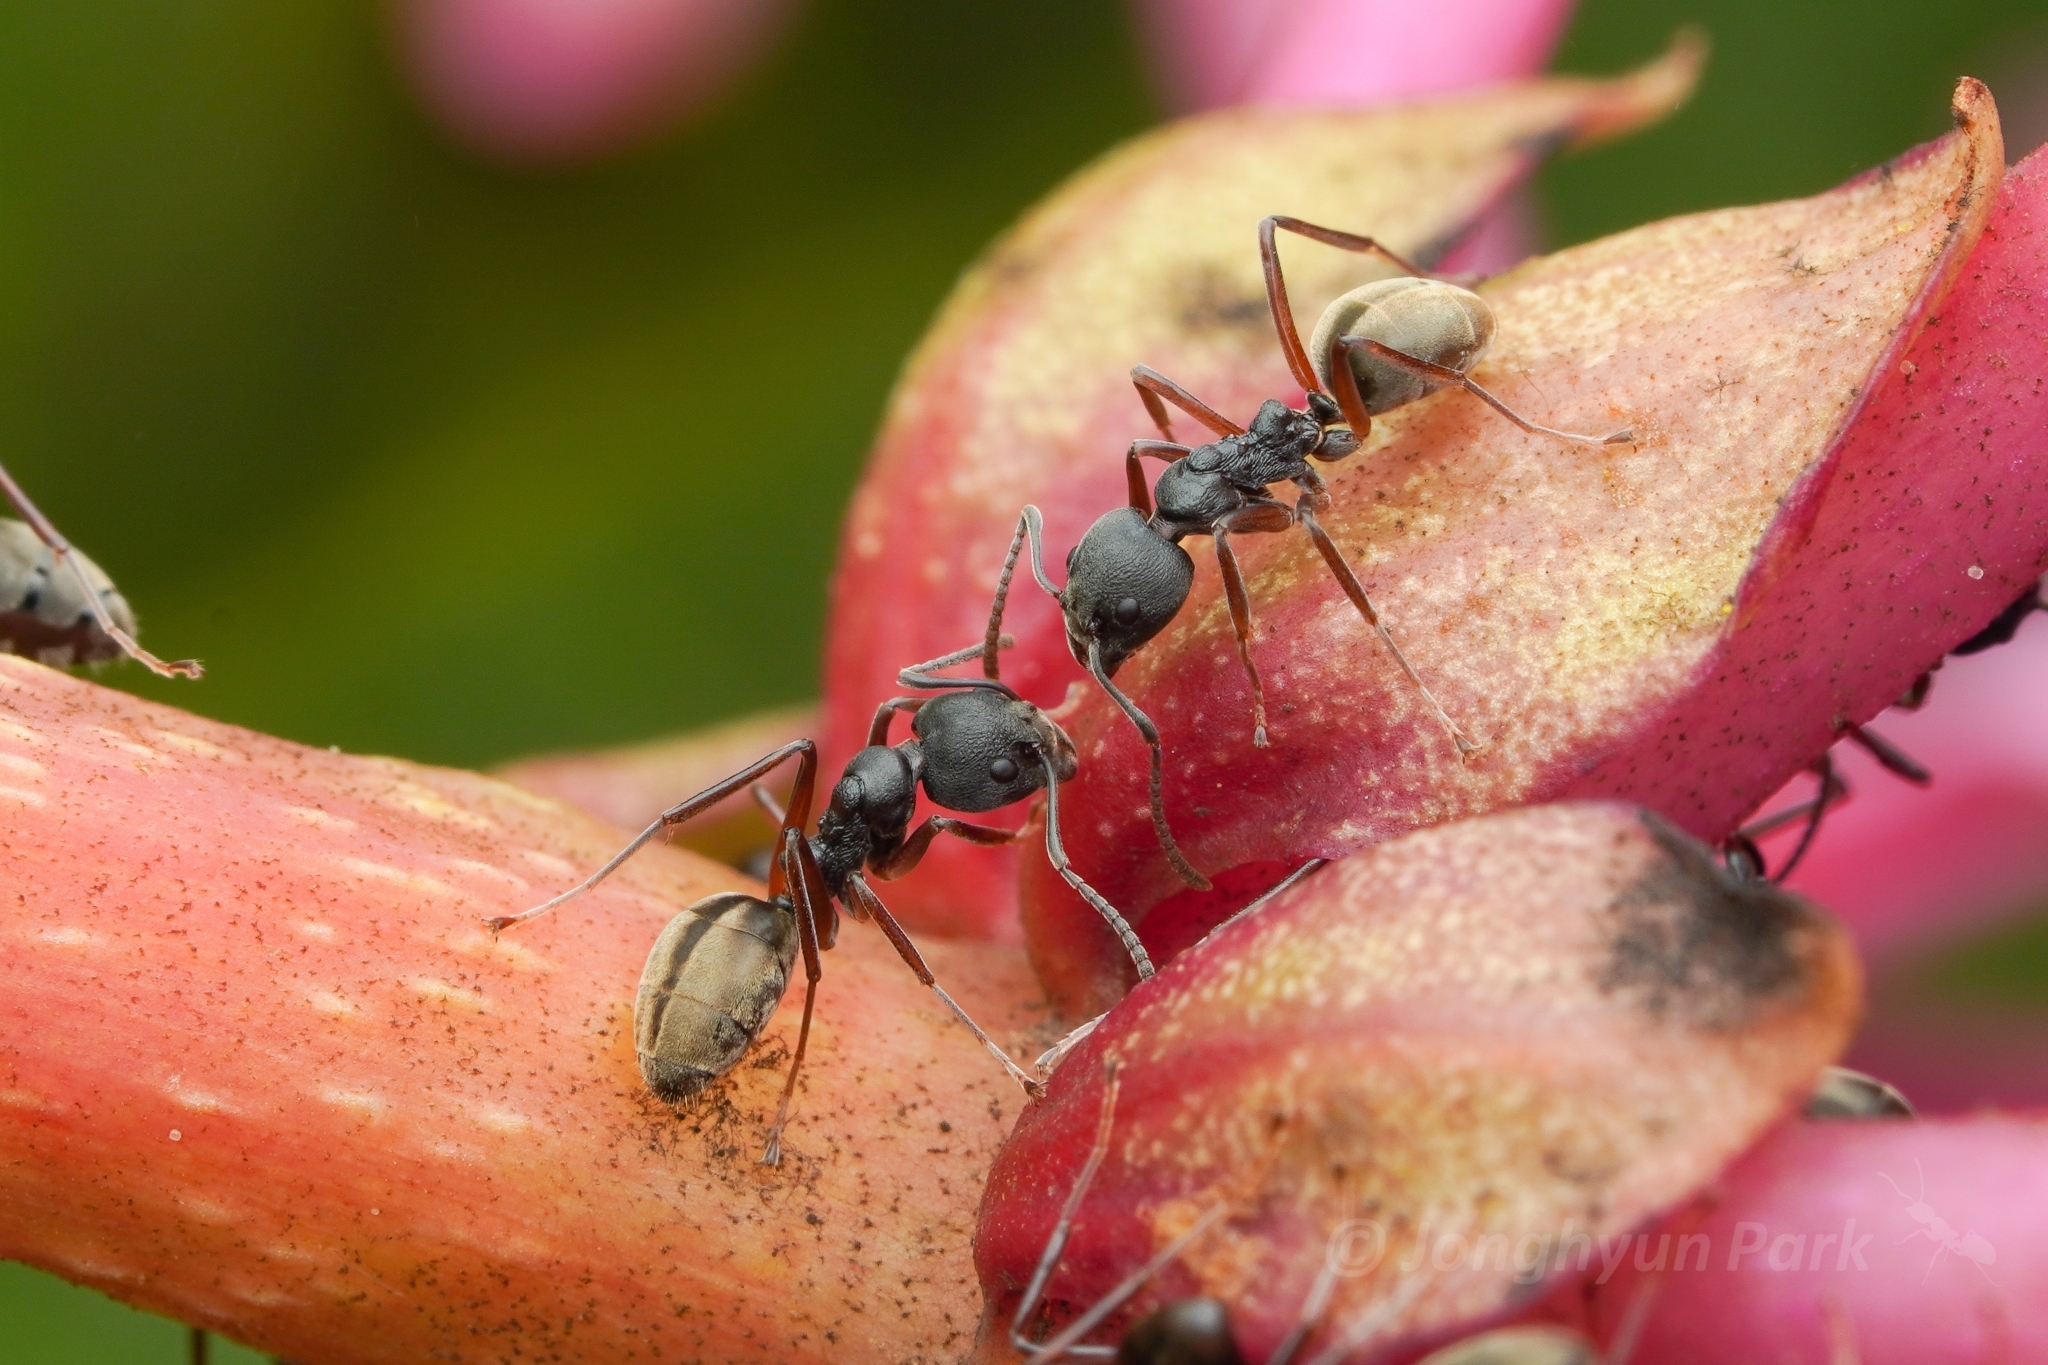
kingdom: Animalia
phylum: Arthropoda
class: Insecta
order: Hymenoptera
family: Formicidae
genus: Dolichoderus
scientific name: Dolichoderus
